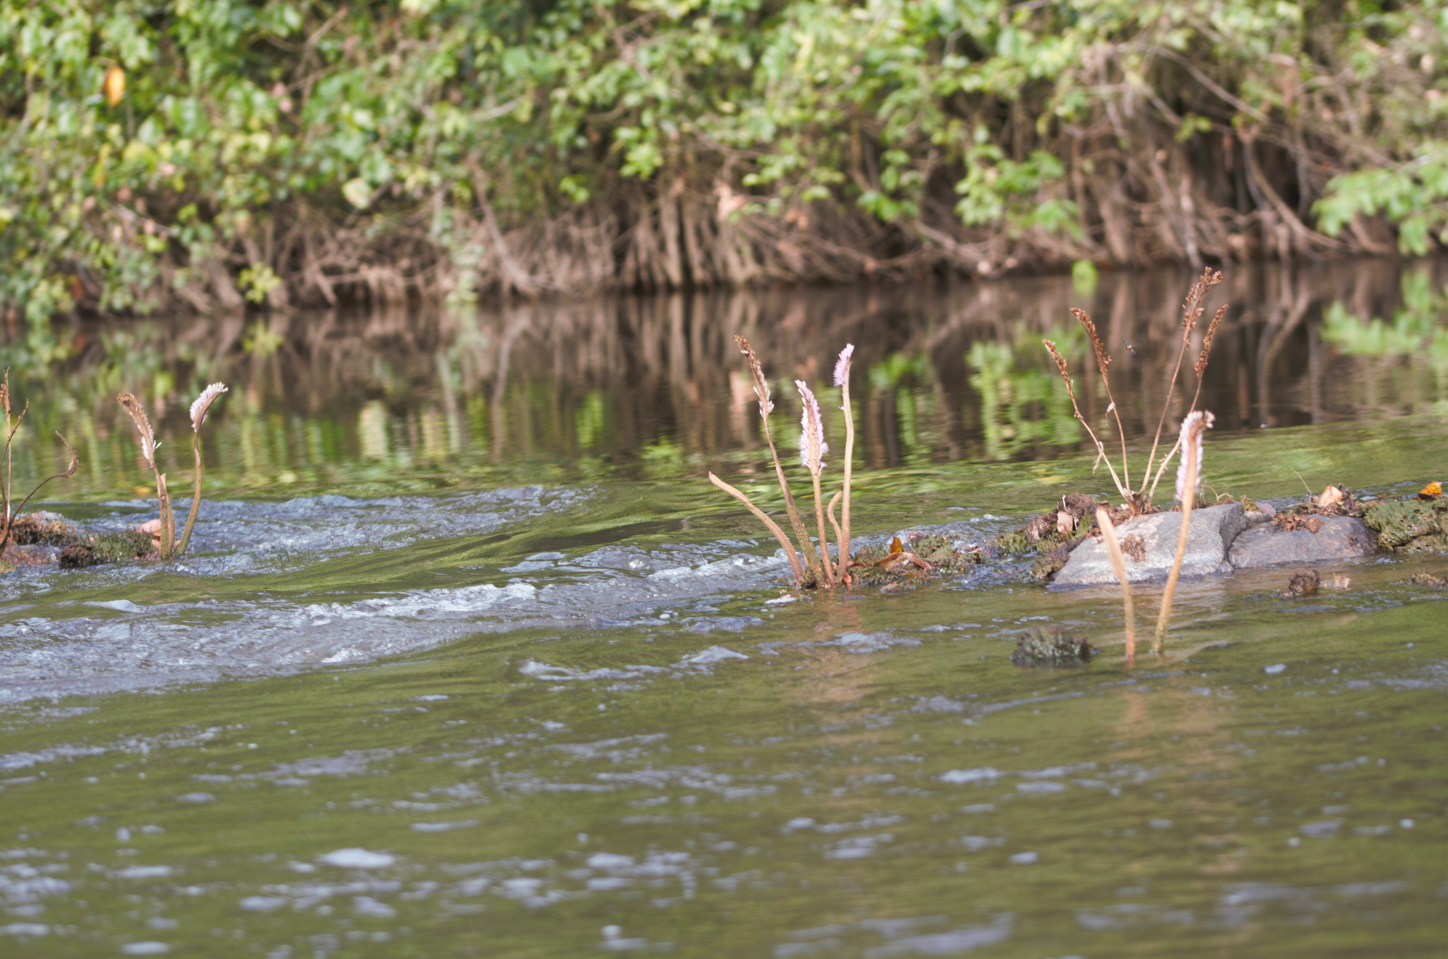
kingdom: Plantae
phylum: Tracheophyta
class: Magnoliopsida
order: Malpighiales
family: Podostemaceae
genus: Mourera
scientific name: Mourera fluviatilis
